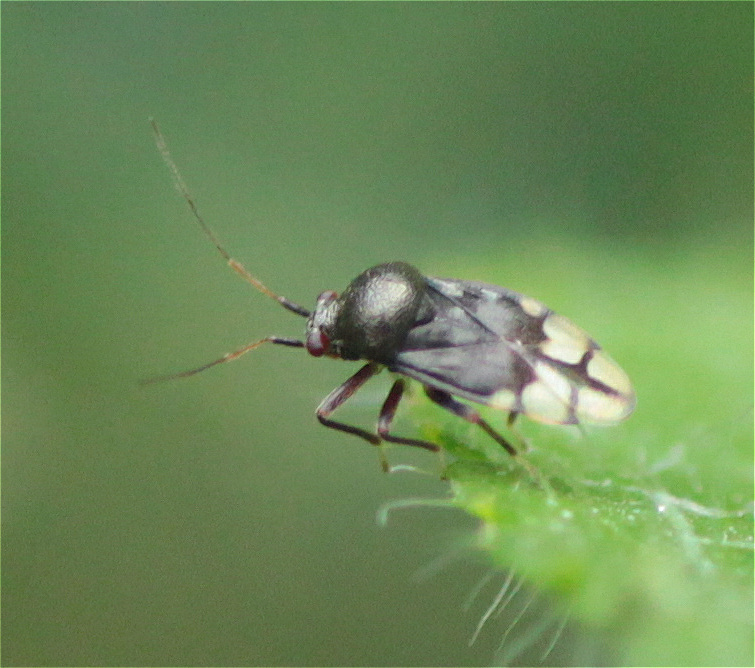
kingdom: Animalia
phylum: Arthropoda
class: Insecta
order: Hemiptera
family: Miridae
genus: Pycnoderes
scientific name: Pycnoderes atratus
